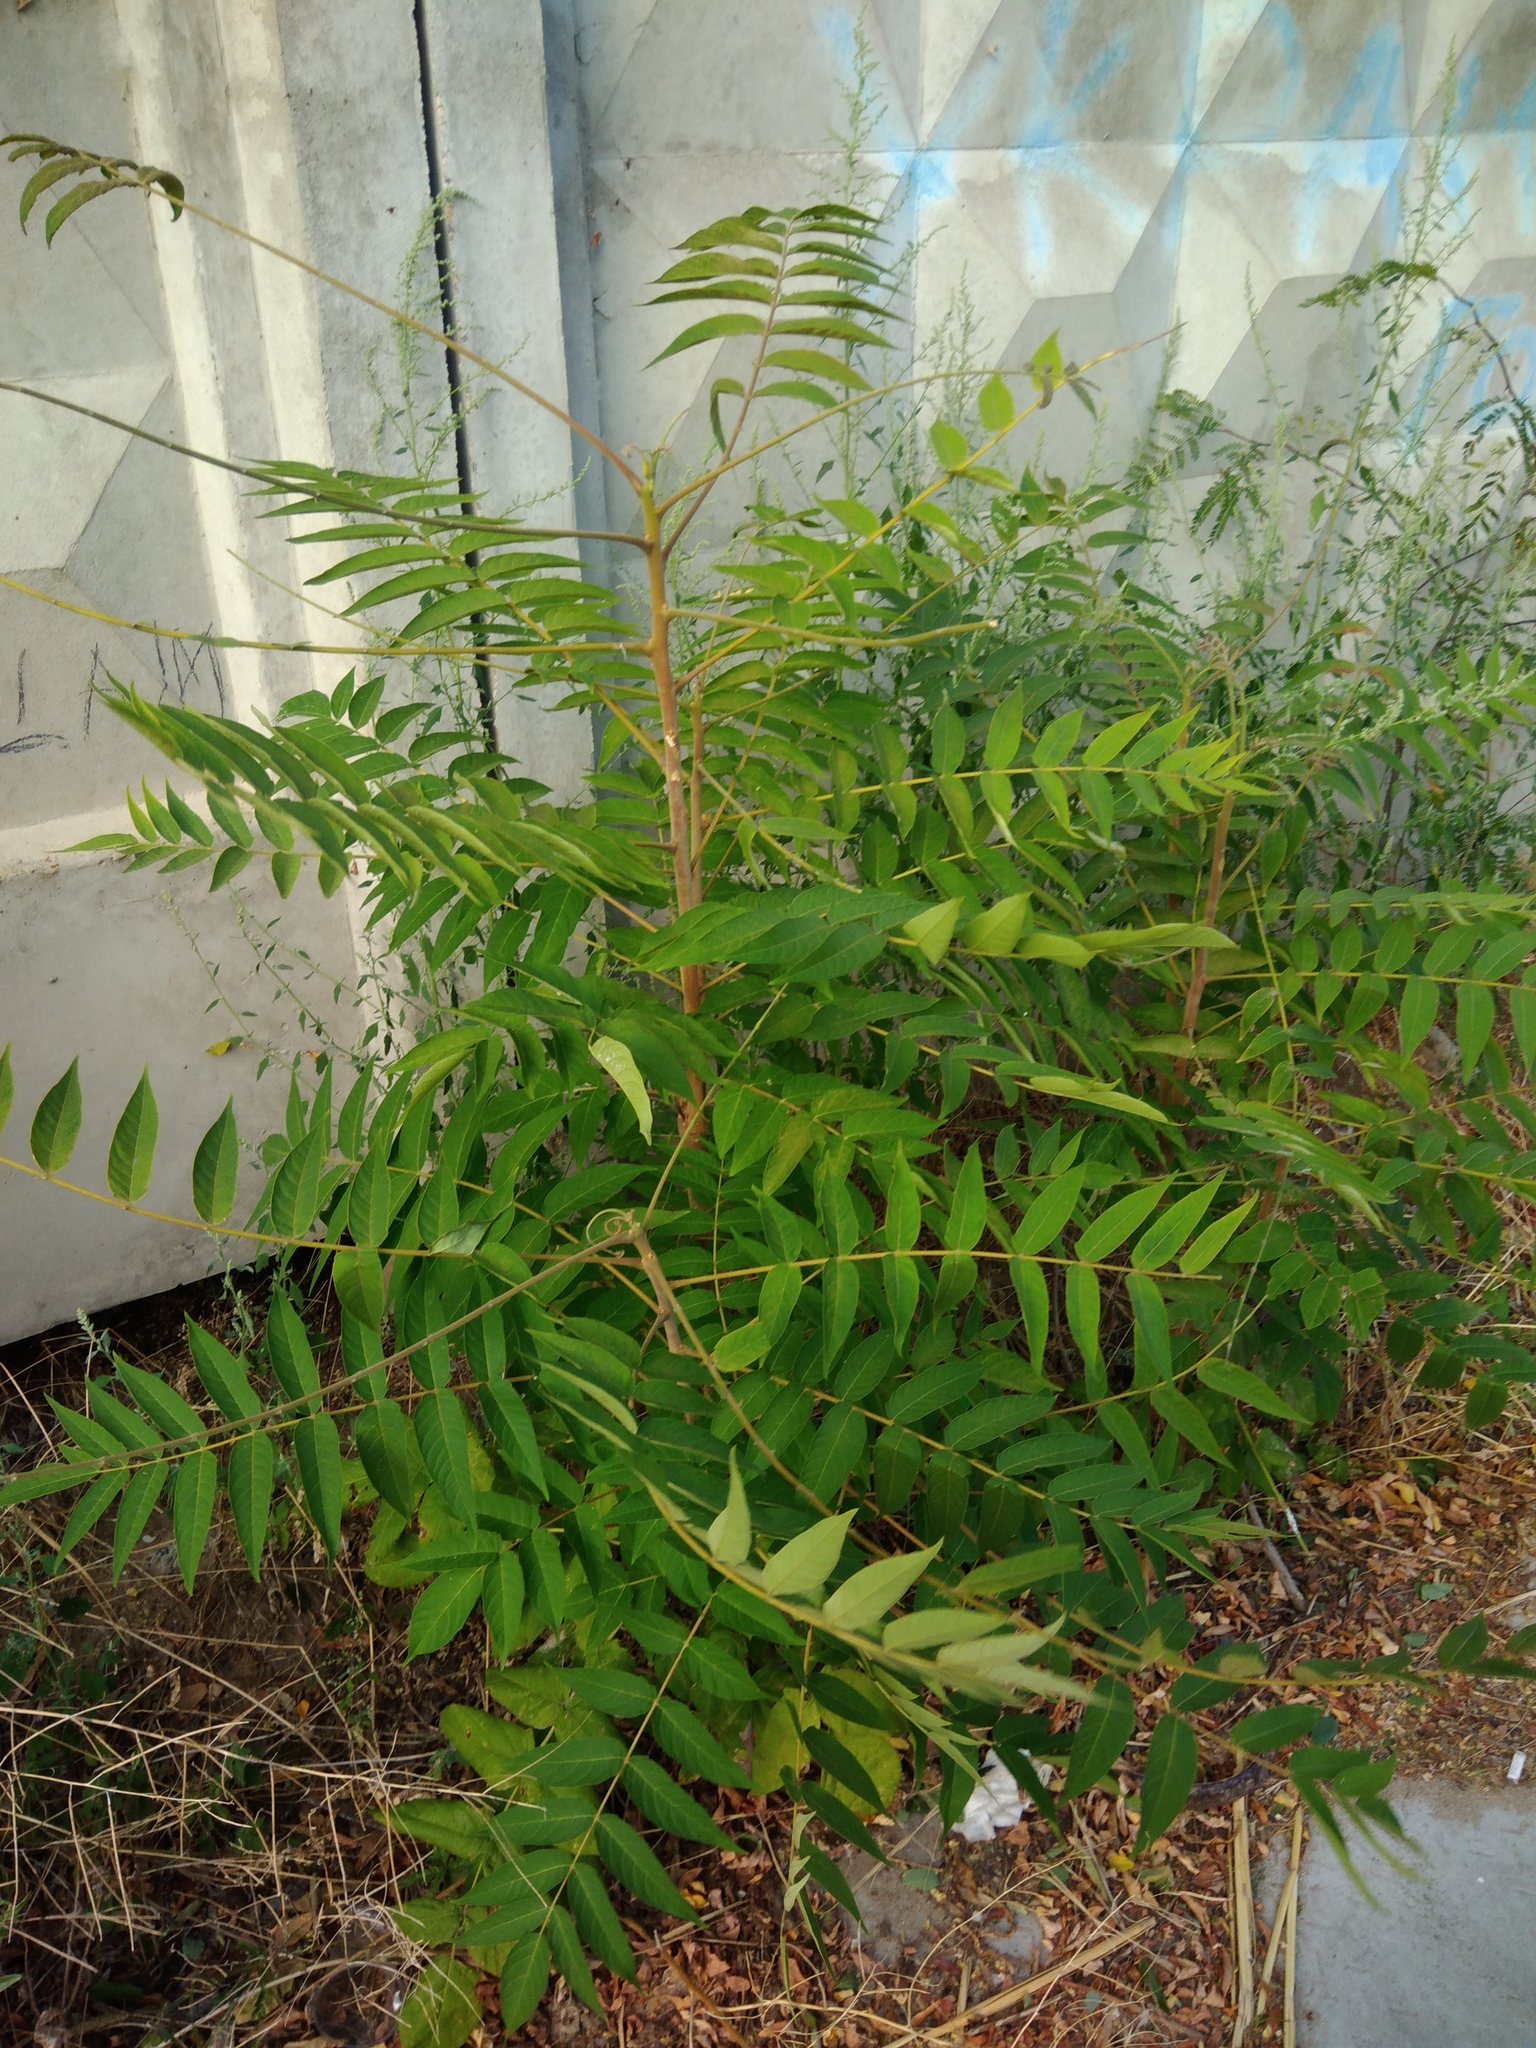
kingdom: Plantae
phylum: Tracheophyta
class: Magnoliopsida
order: Sapindales
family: Simaroubaceae
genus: Ailanthus
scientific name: Ailanthus altissima
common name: Tree-of-heaven
